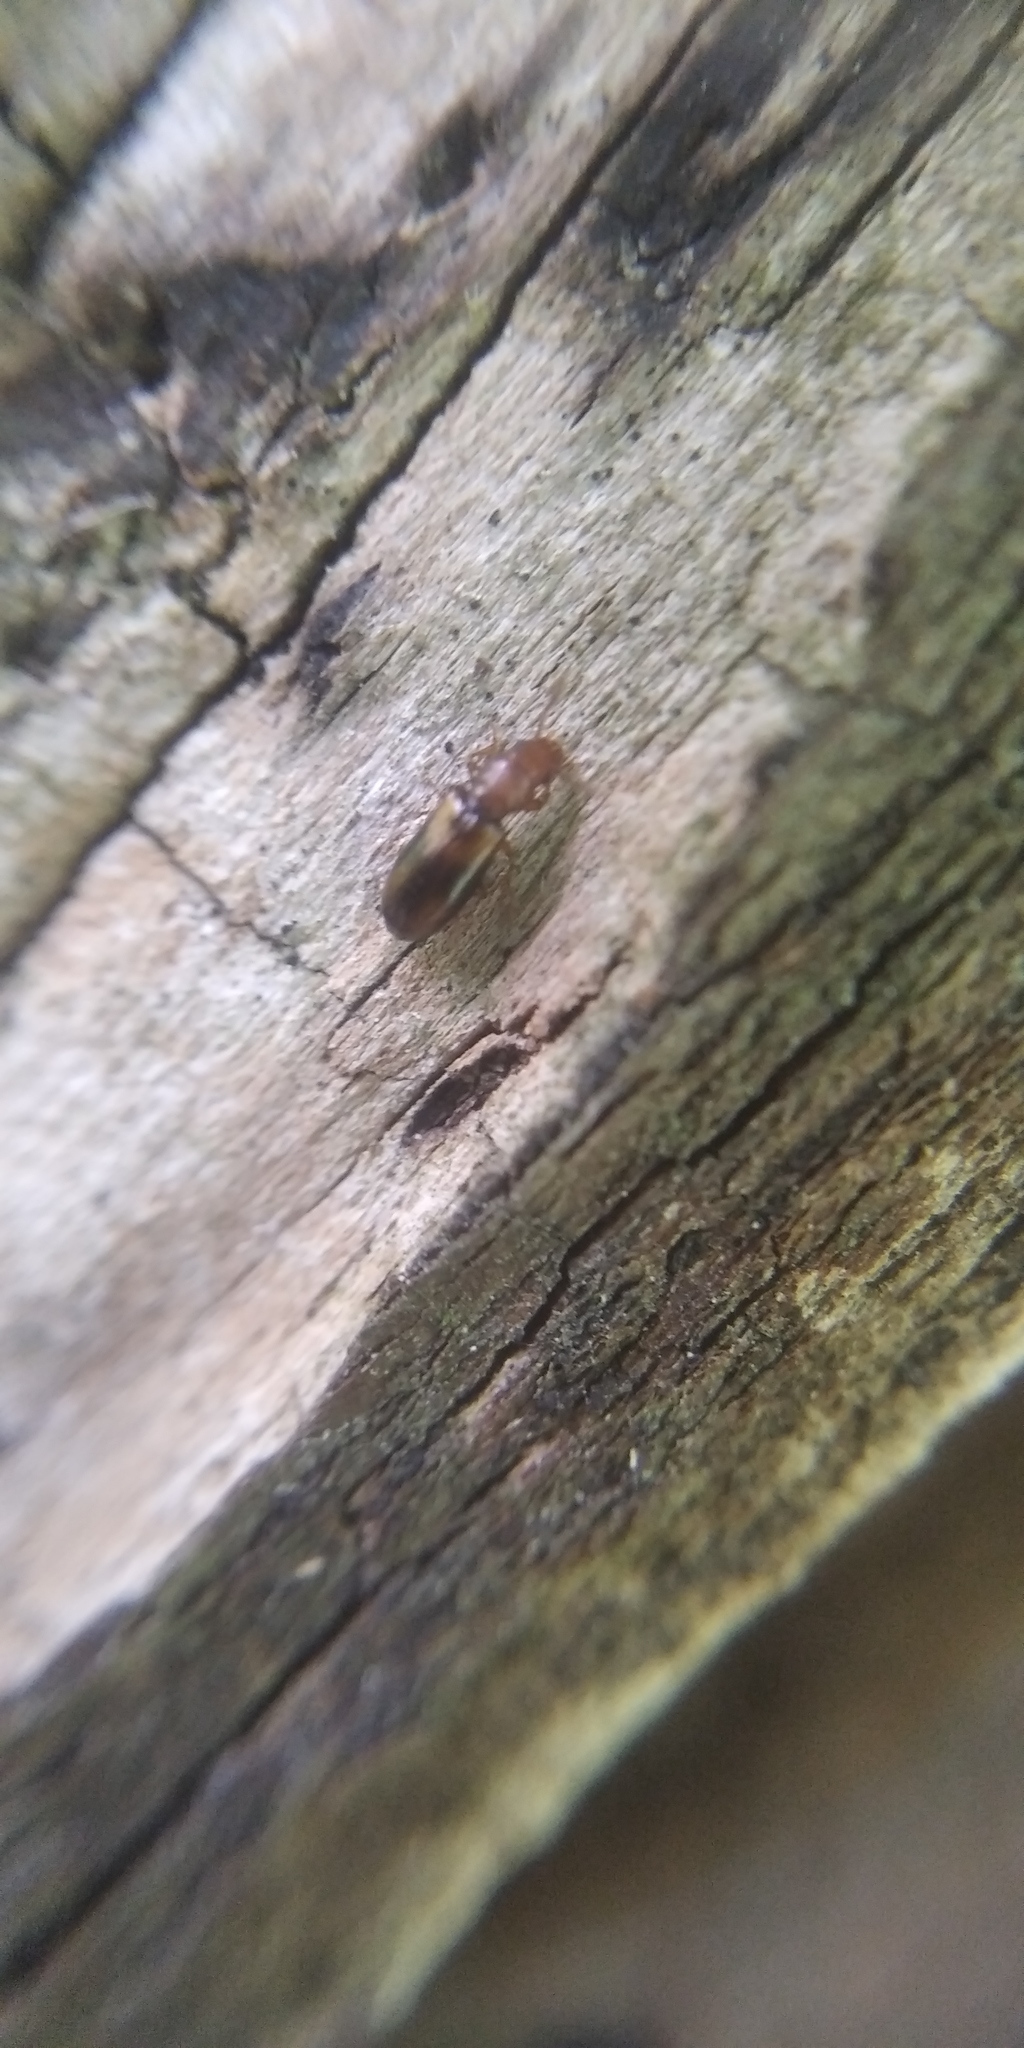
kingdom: Animalia
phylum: Arthropoda
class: Insecta
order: Coleoptera
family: Salpingidae
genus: Lissodema
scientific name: Lissodema denticolle
